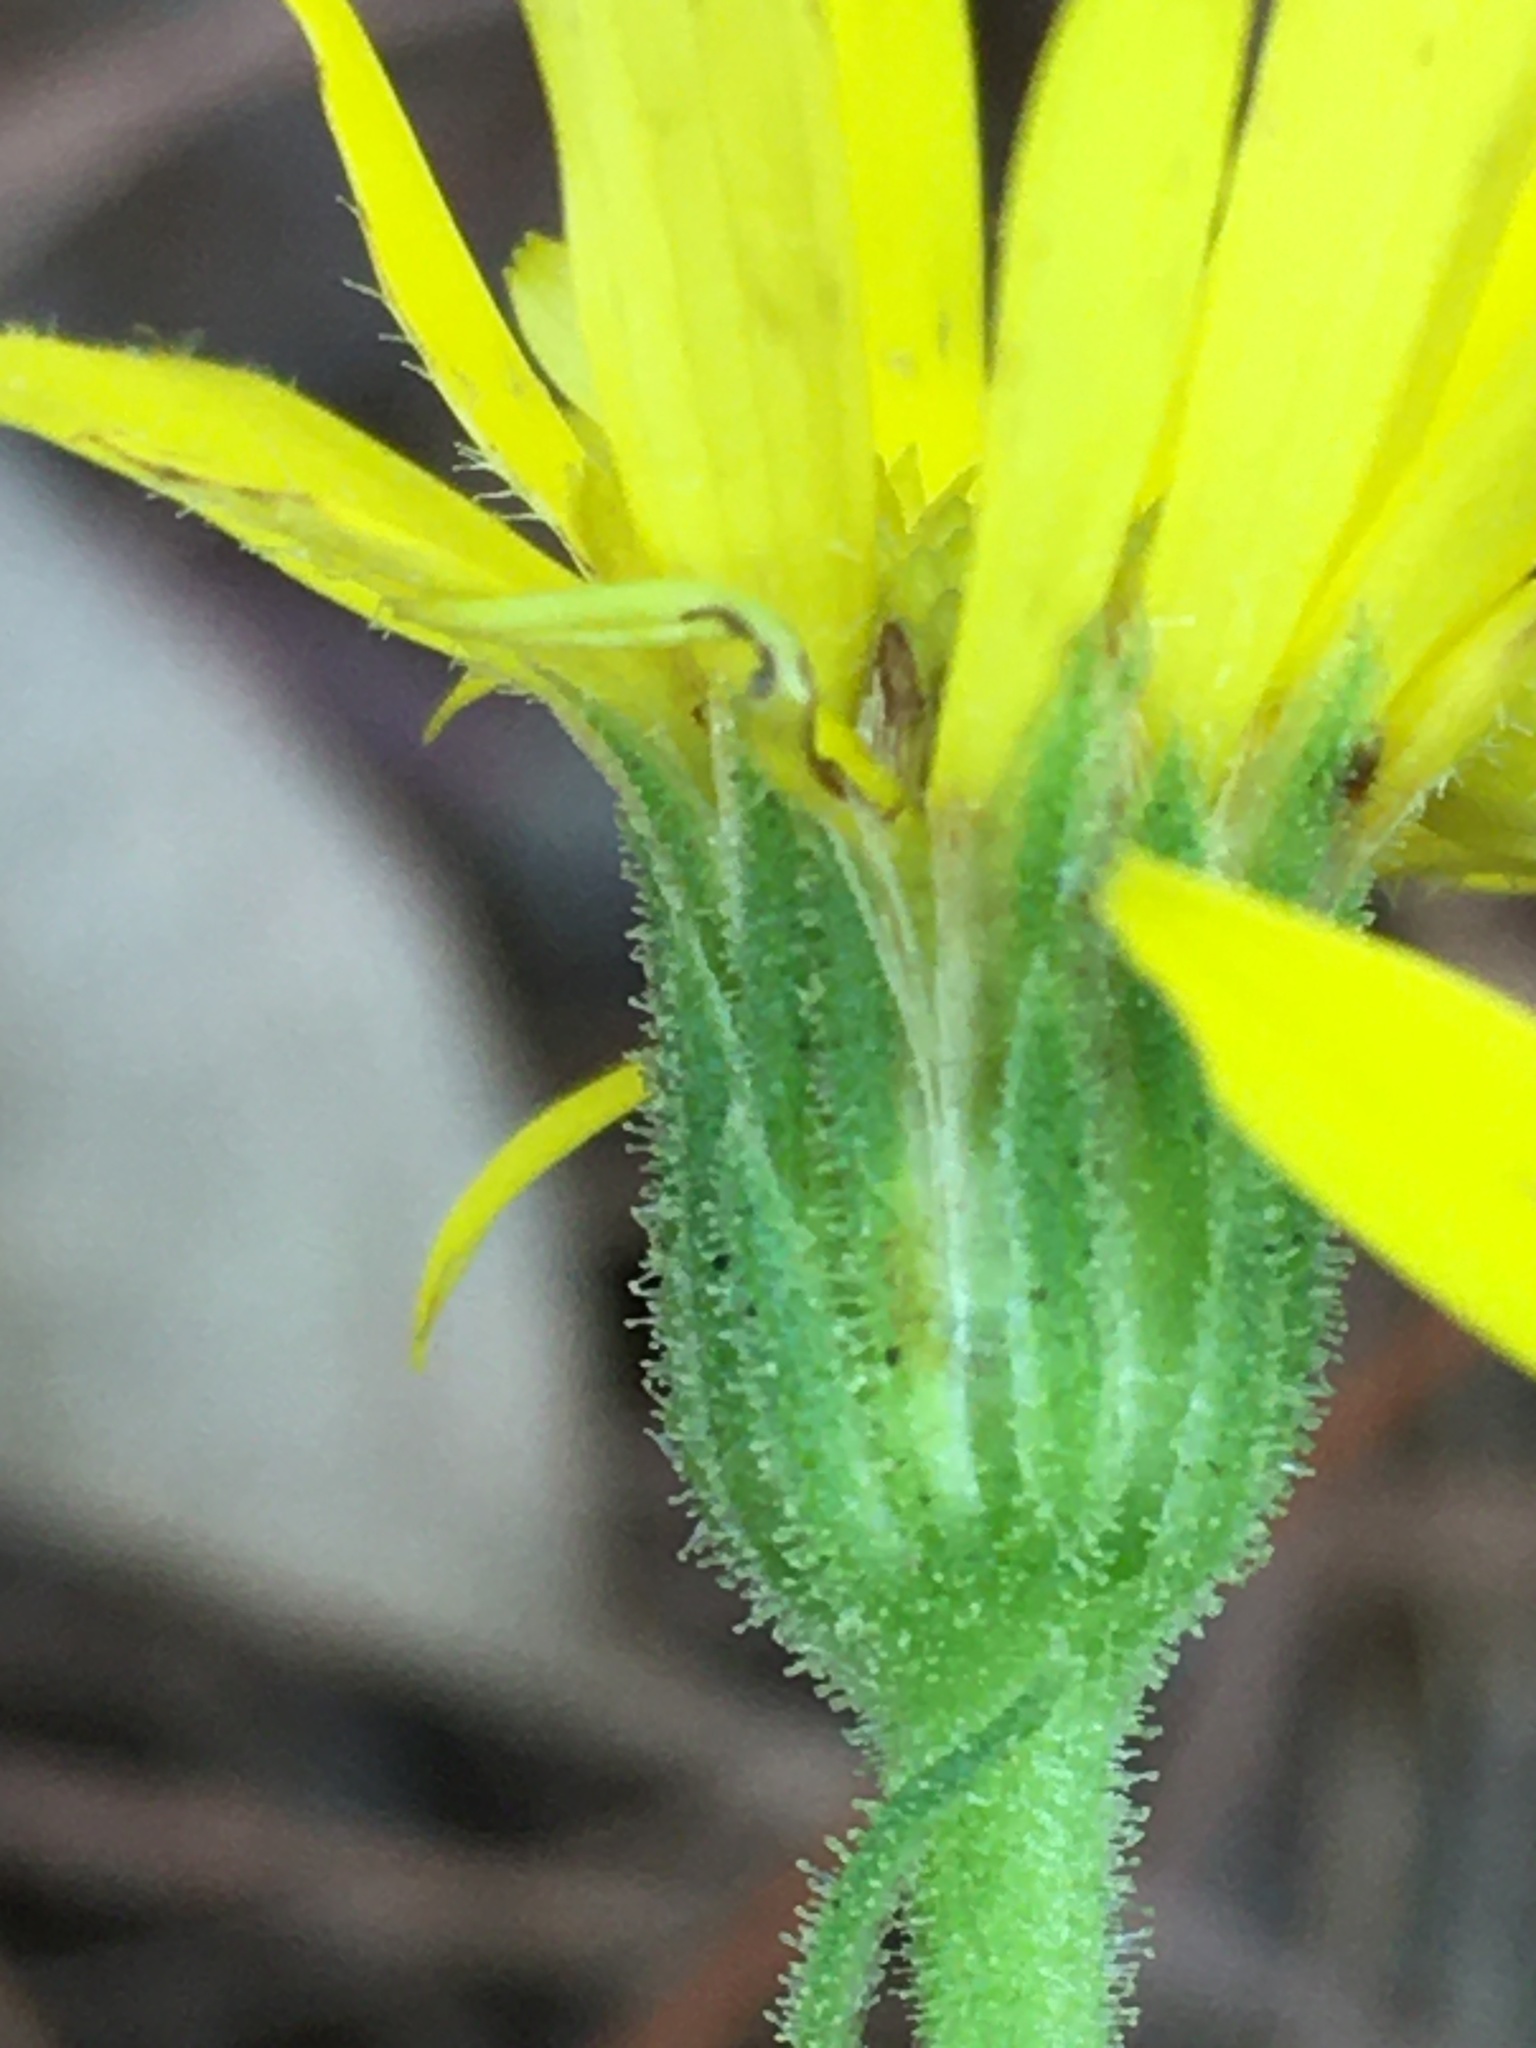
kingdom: Plantae
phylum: Tracheophyta
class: Magnoliopsida
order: Asterales
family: Asteraceae
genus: Chrysopsis
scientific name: Chrysopsis mariana
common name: Maryland golden-aster
